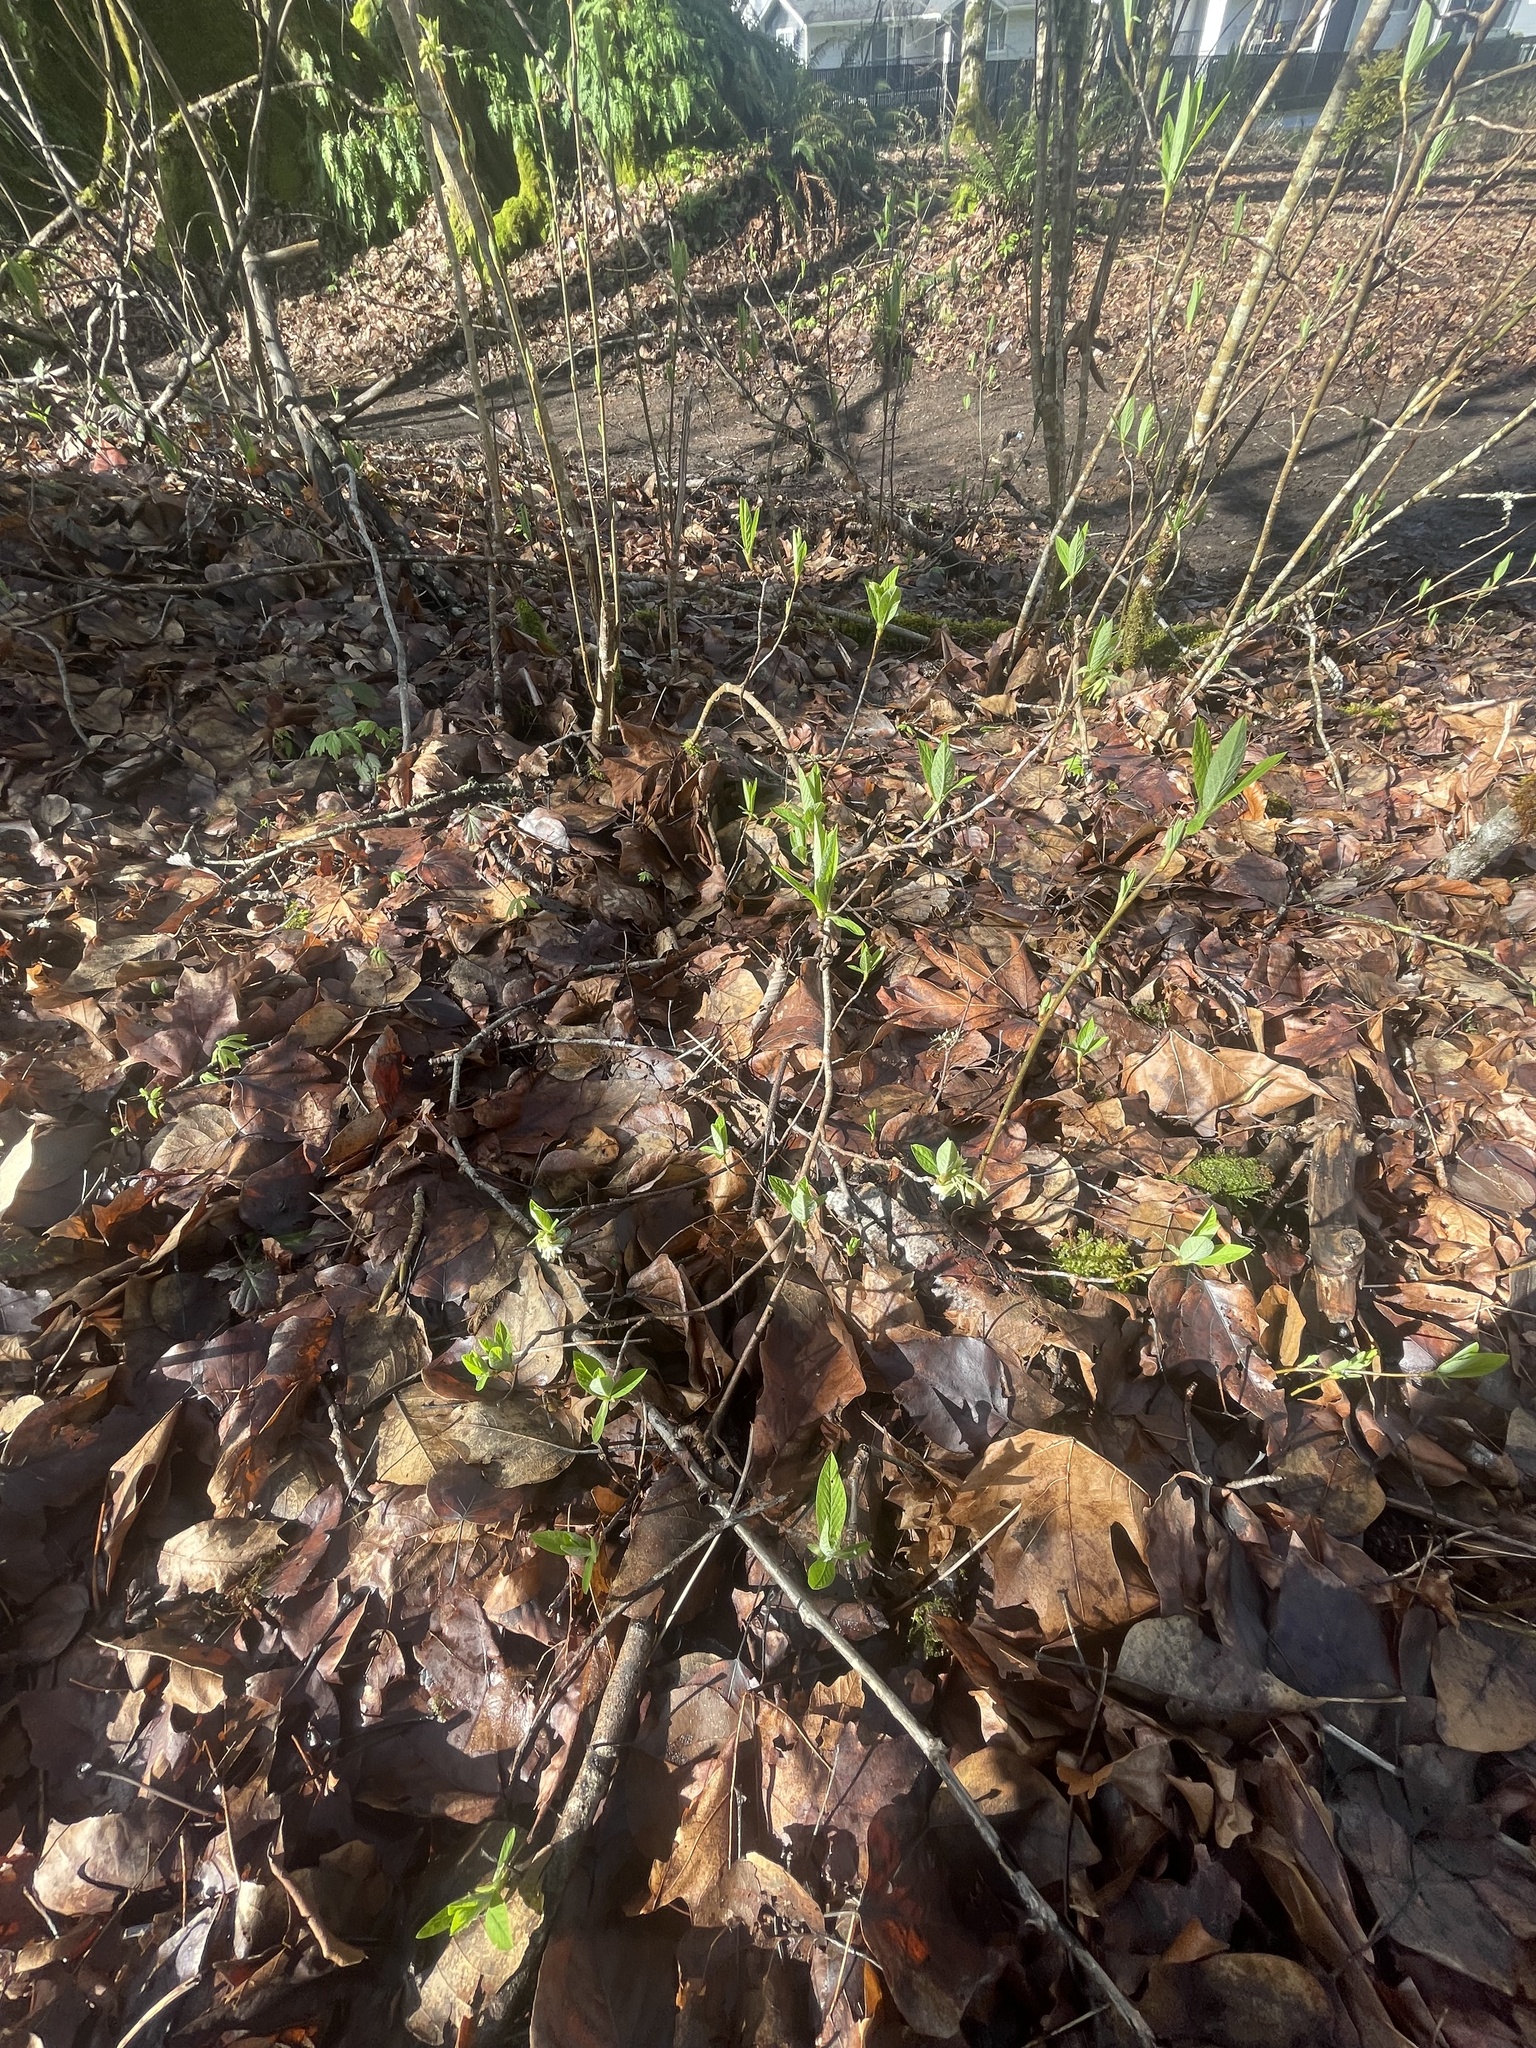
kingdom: Plantae
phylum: Tracheophyta
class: Magnoliopsida
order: Rosales
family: Rosaceae
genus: Oemleria
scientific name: Oemleria cerasiformis
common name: Osoberry
